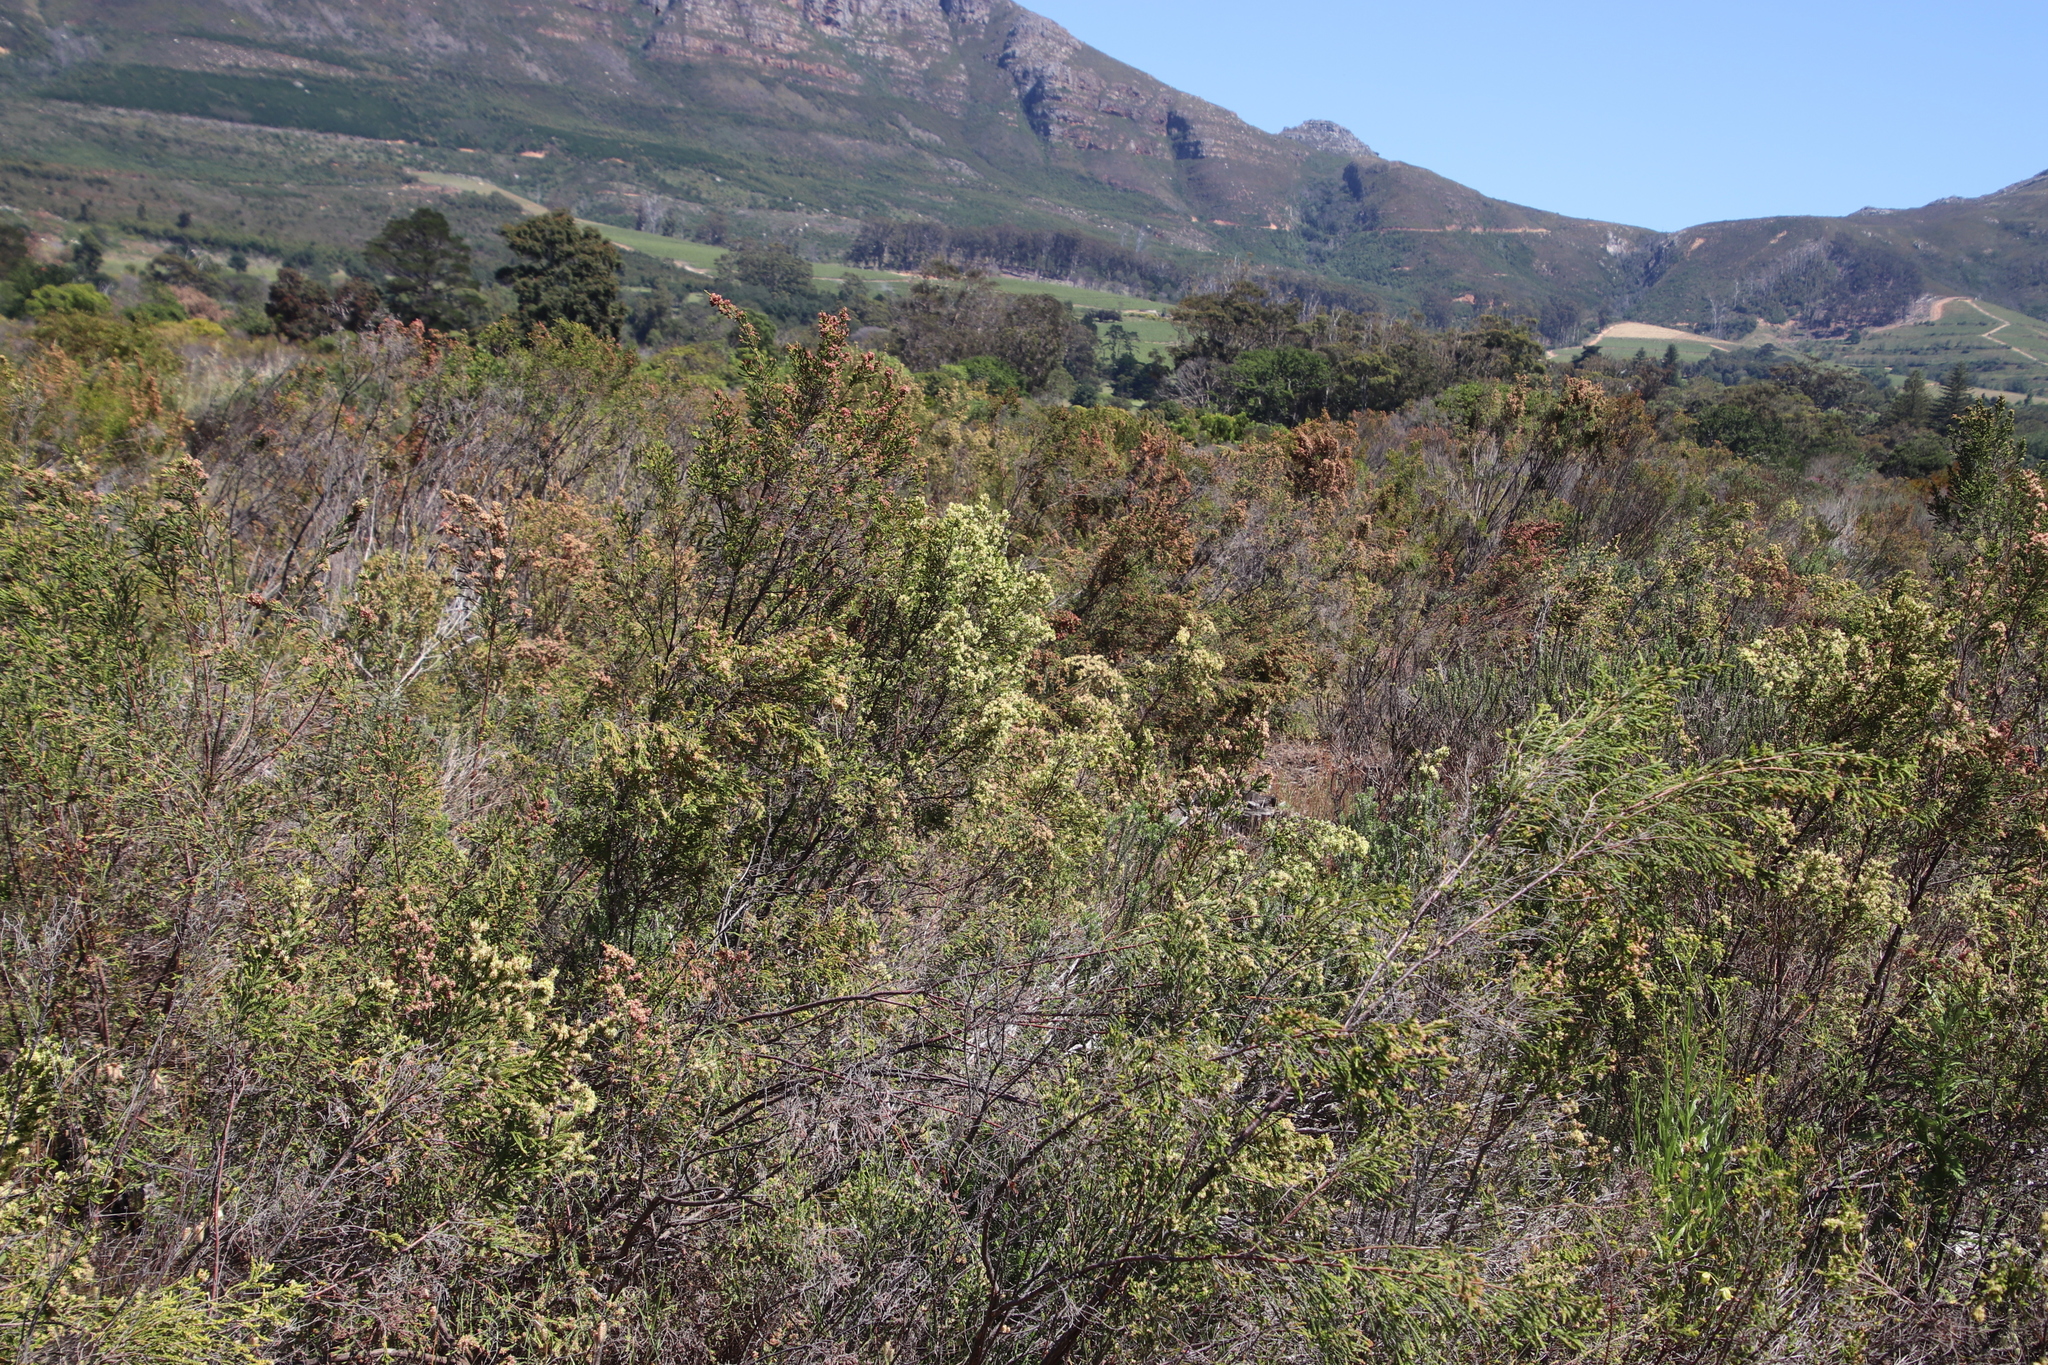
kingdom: Plantae
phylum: Tracheophyta
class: Magnoliopsida
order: Malvales
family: Thymelaeaceae
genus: Passerina
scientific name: Passerina corymbosa
